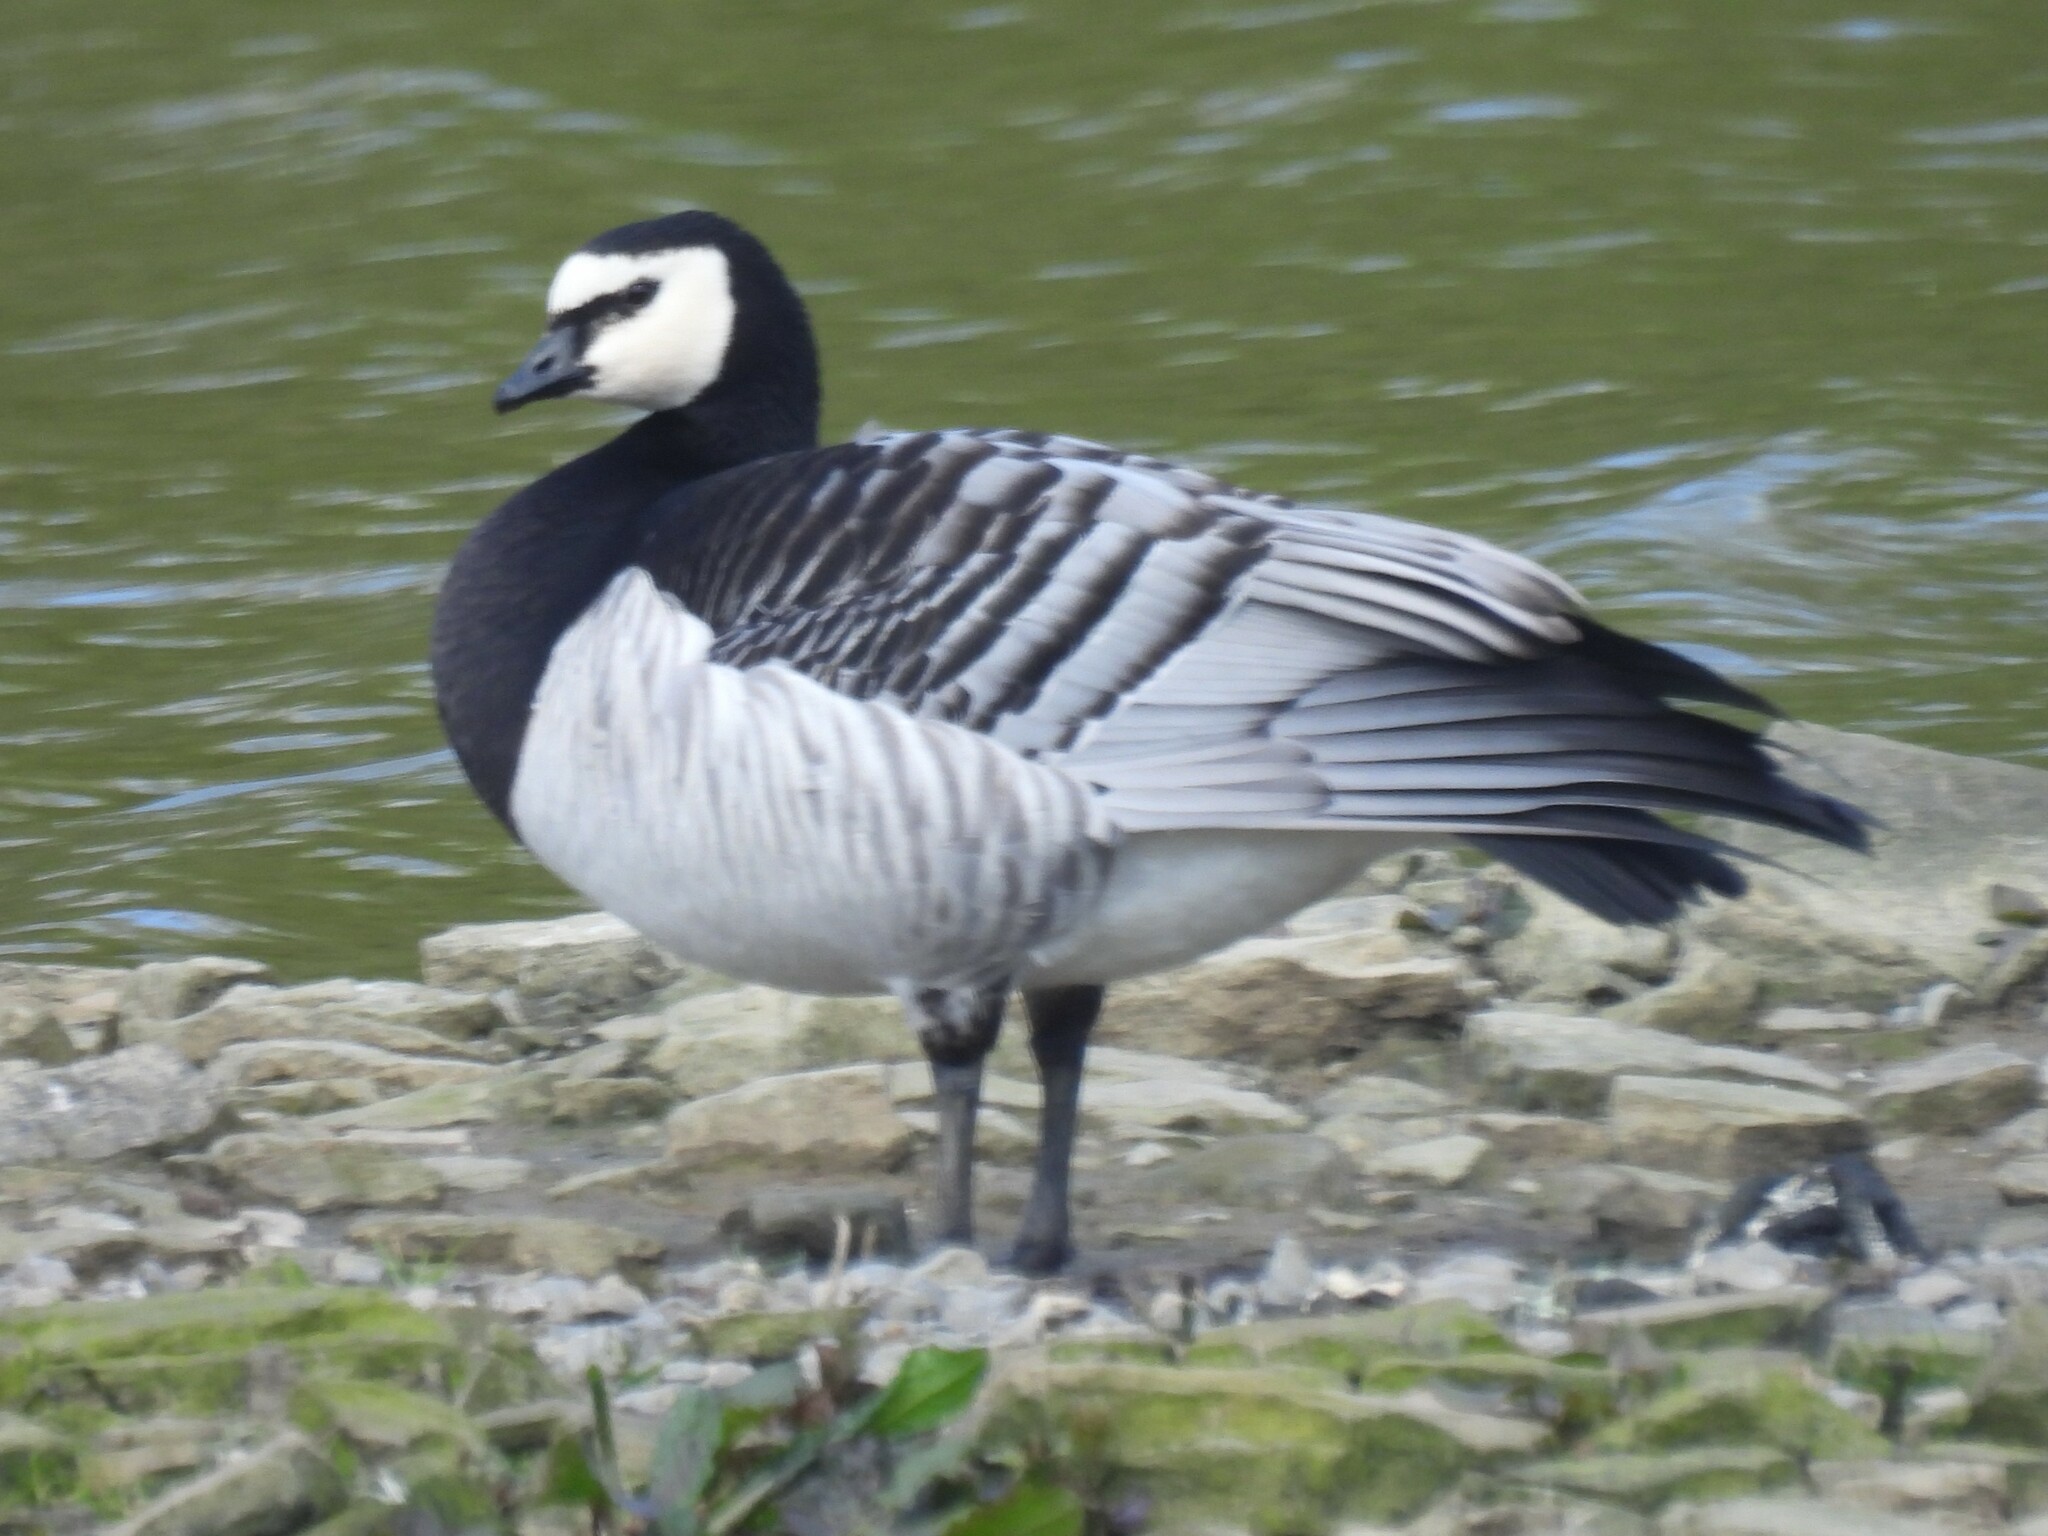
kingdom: Animalia
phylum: Chordata
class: Aves
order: Anseriformes
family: Anatidae
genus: Branta
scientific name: Branta leucopsis
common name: Barnacle goose
